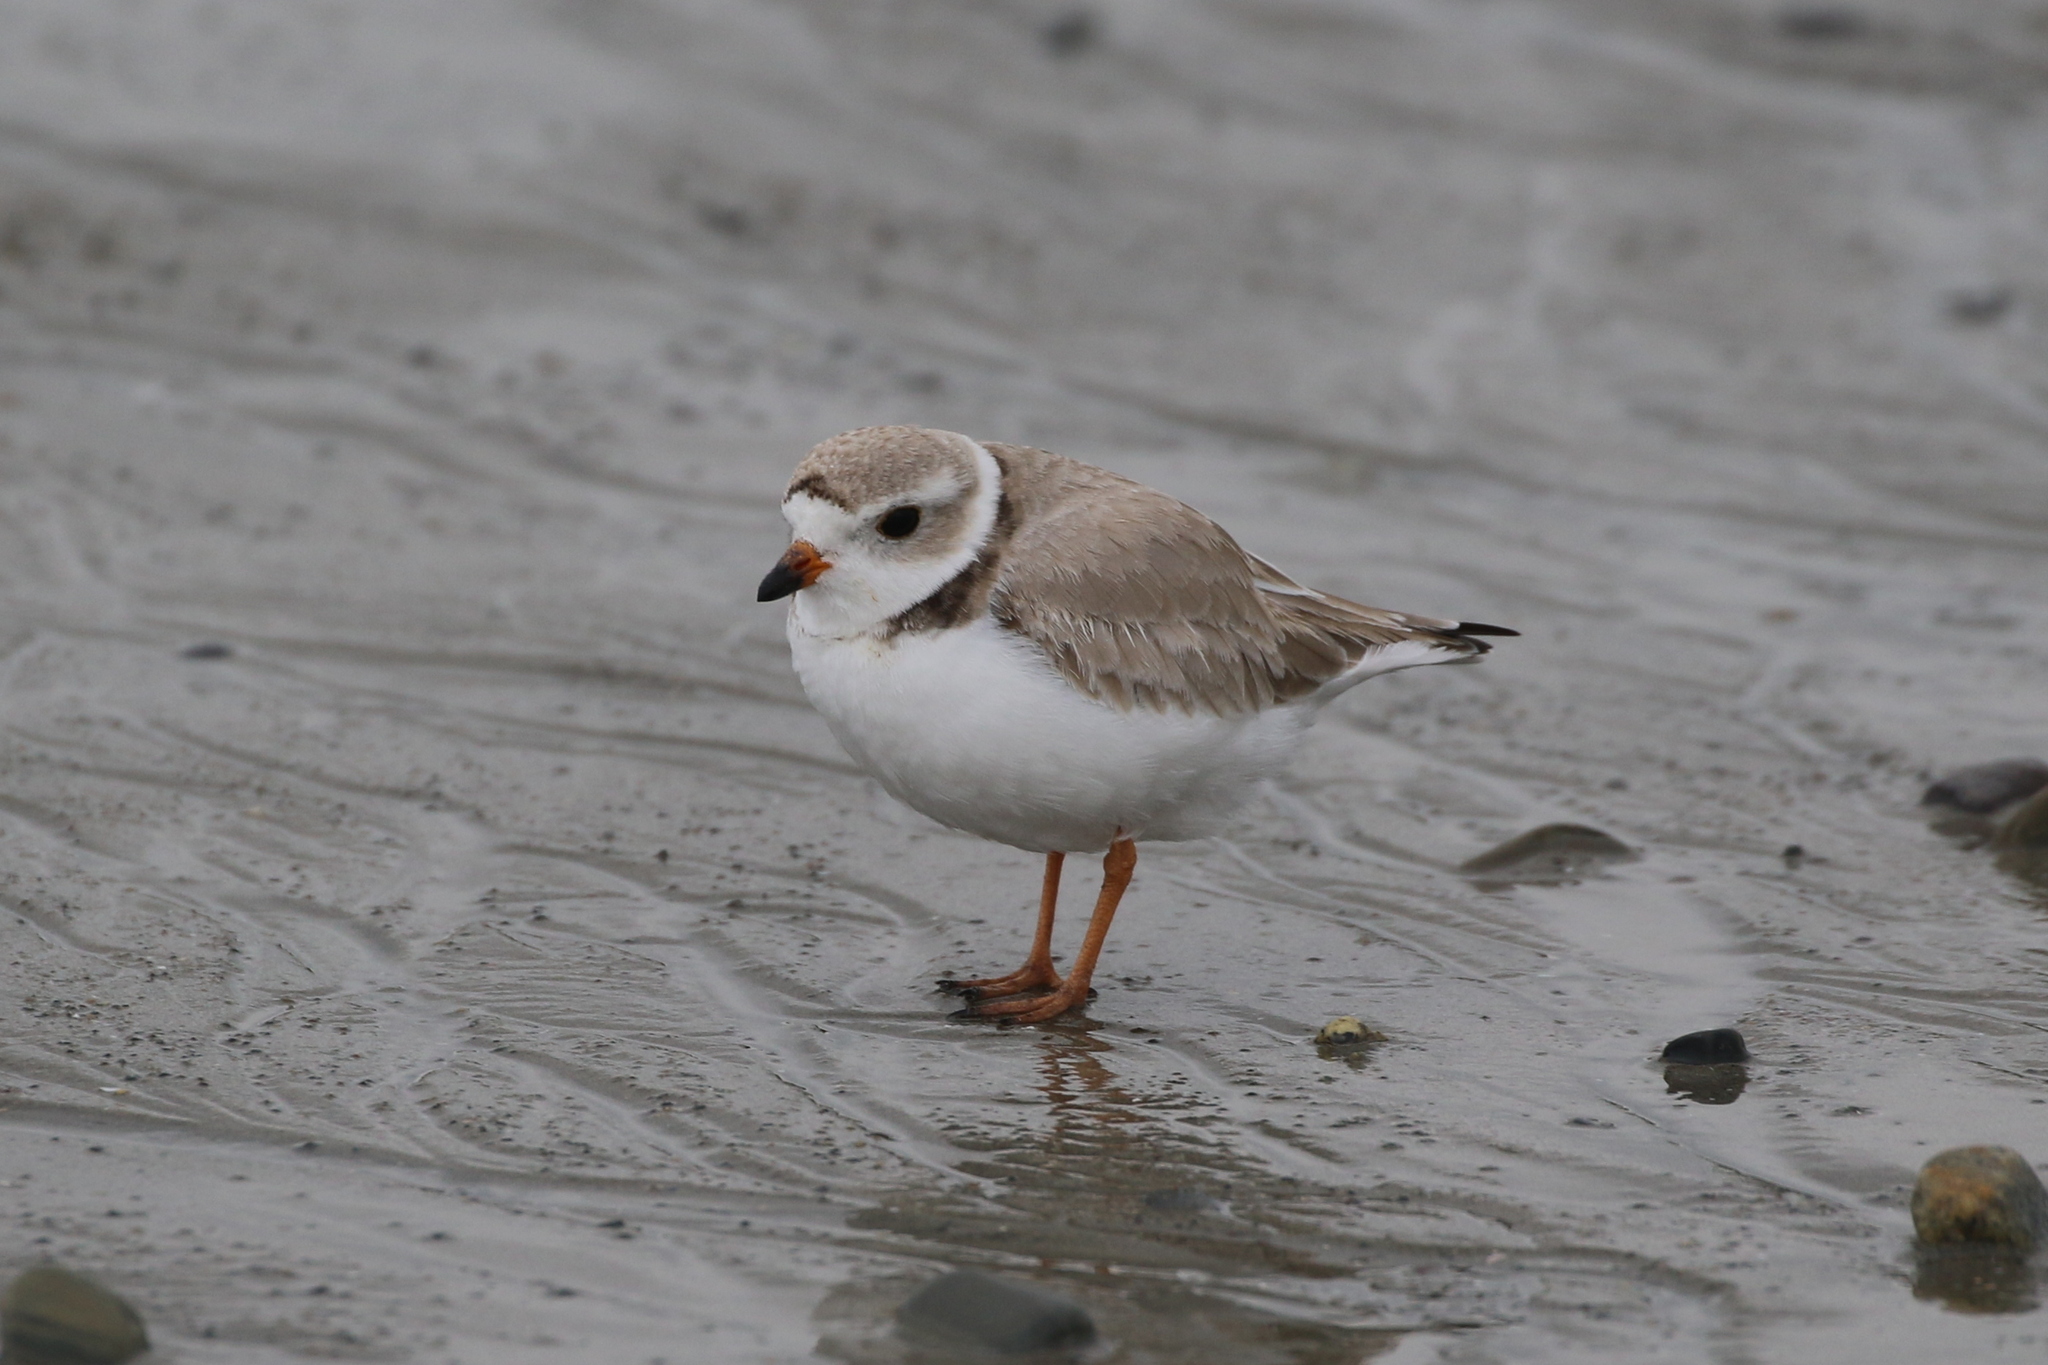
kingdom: Animalia
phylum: Chordata
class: Aves
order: Charadriiformes
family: Charadriidae
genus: Charadrius
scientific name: Charadrius melodus
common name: Piping plover
